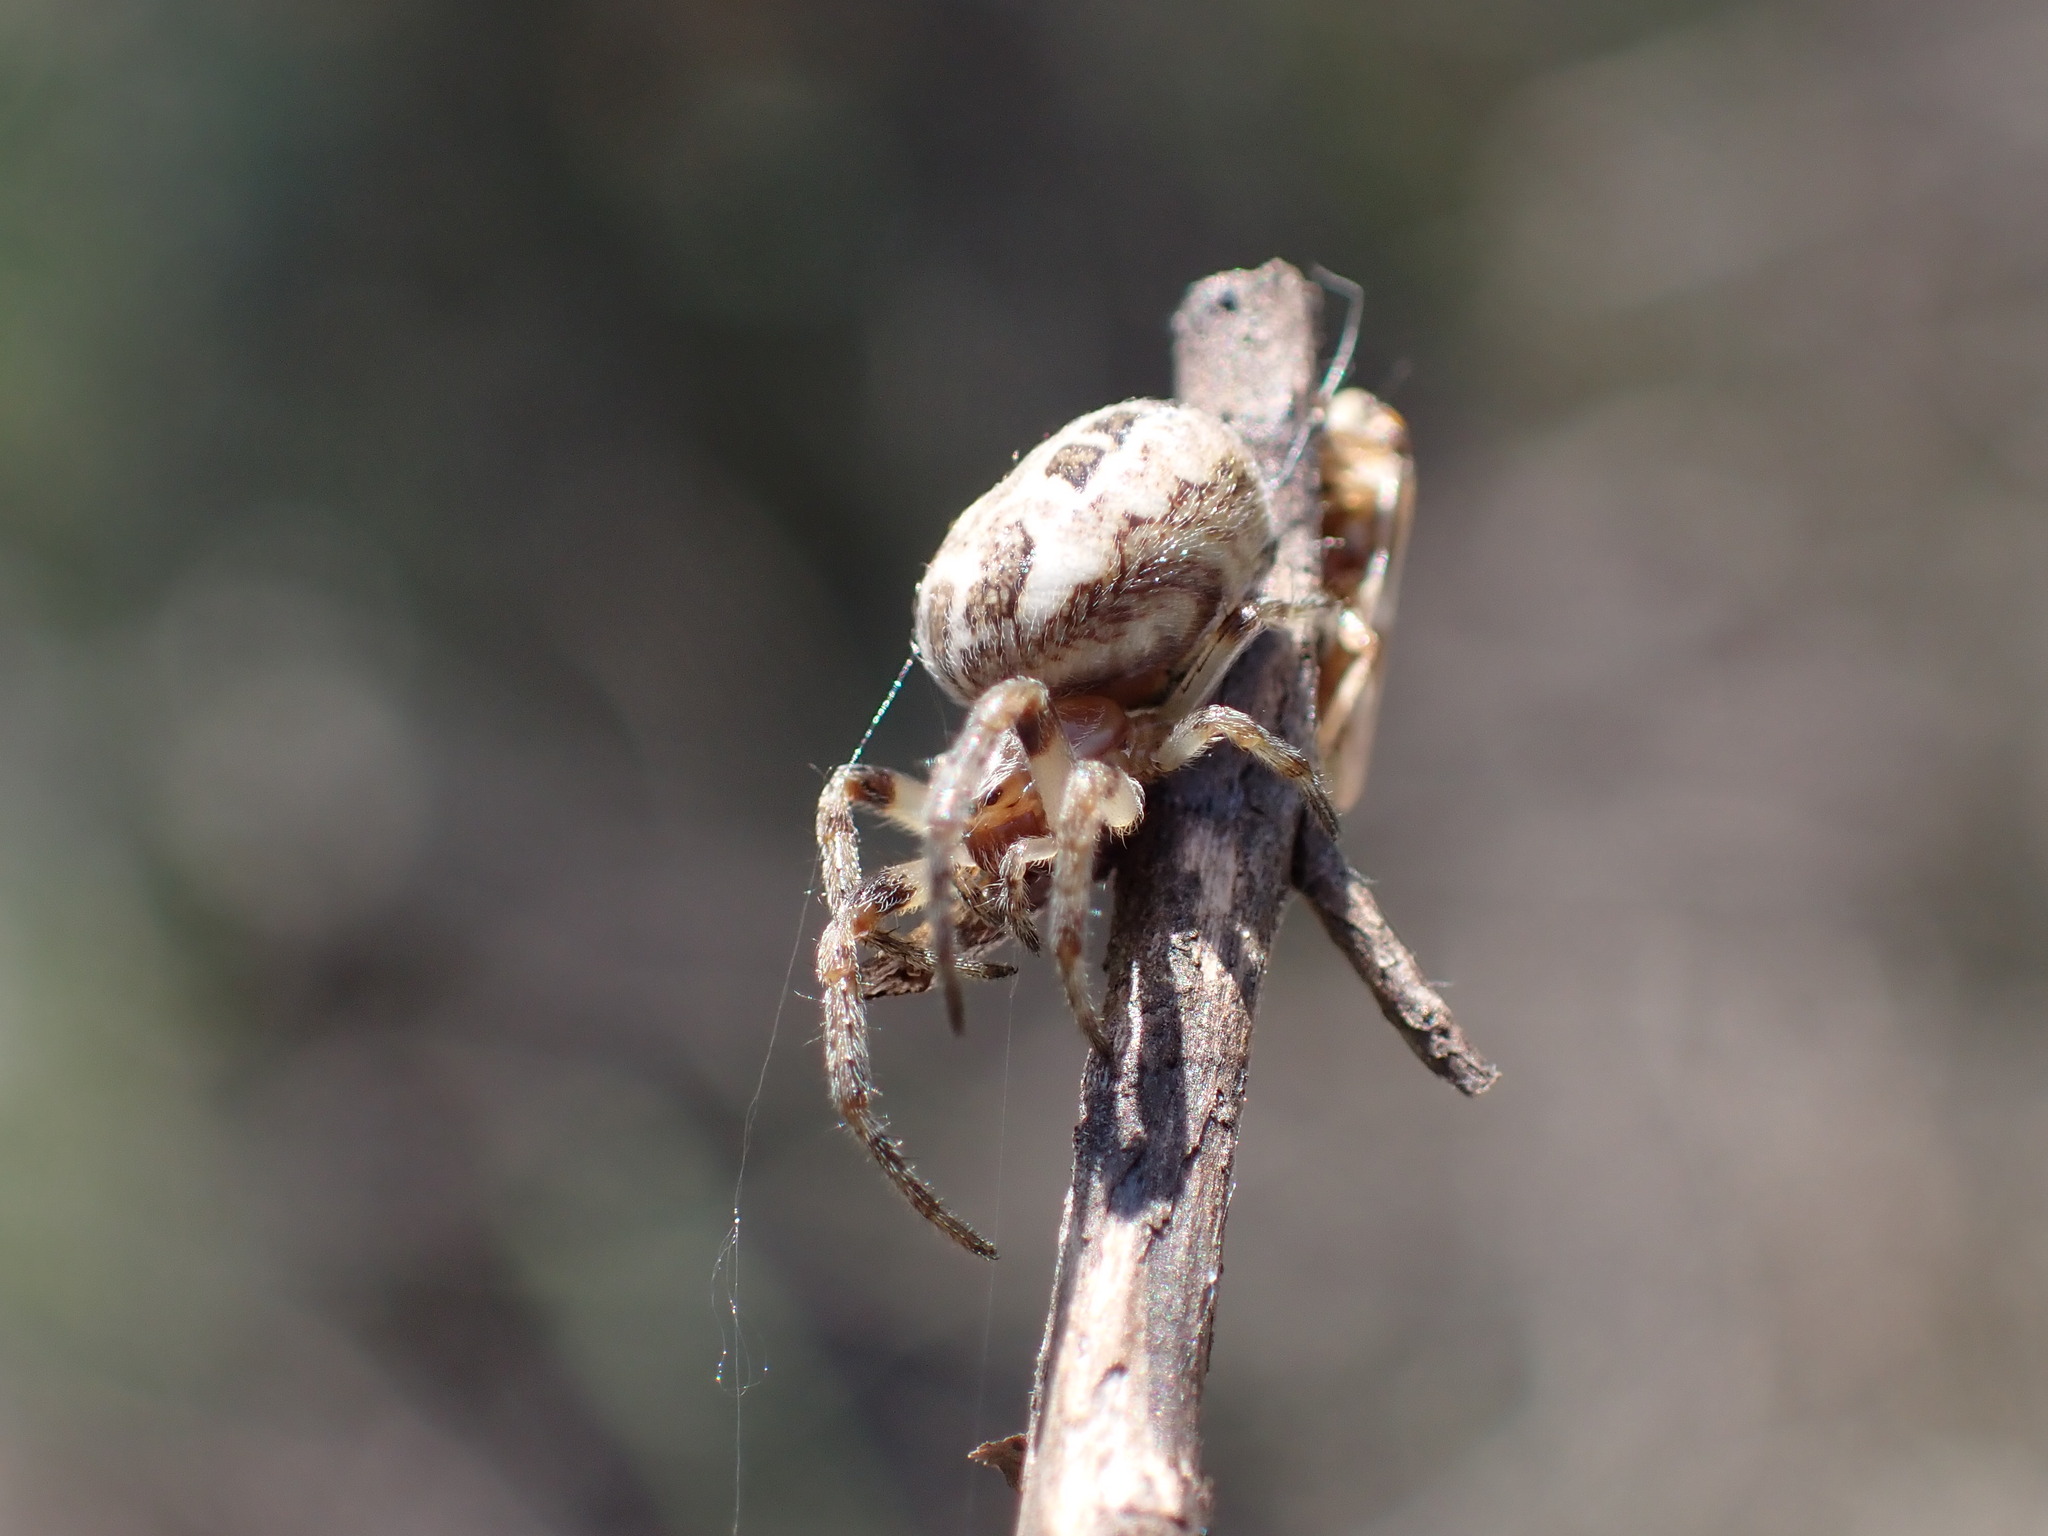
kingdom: Animalia
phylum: Arthropoda
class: Arachnida
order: Araneae
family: Araneidae
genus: Larinioides
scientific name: Larinioides
